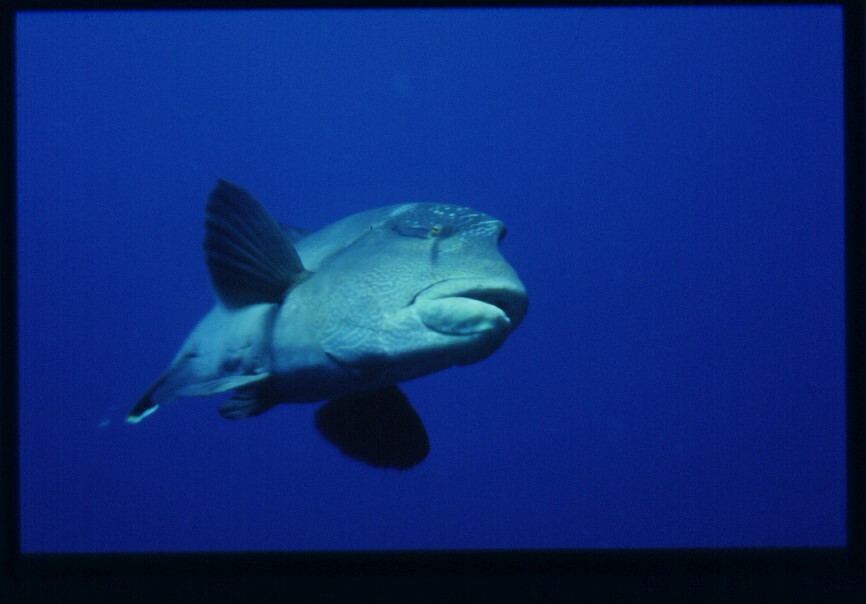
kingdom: Animalia
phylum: Chordata
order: Perciformes
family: Labridae
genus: Cheilinus
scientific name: Cheilinus undulatus
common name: Humphead wrasse
